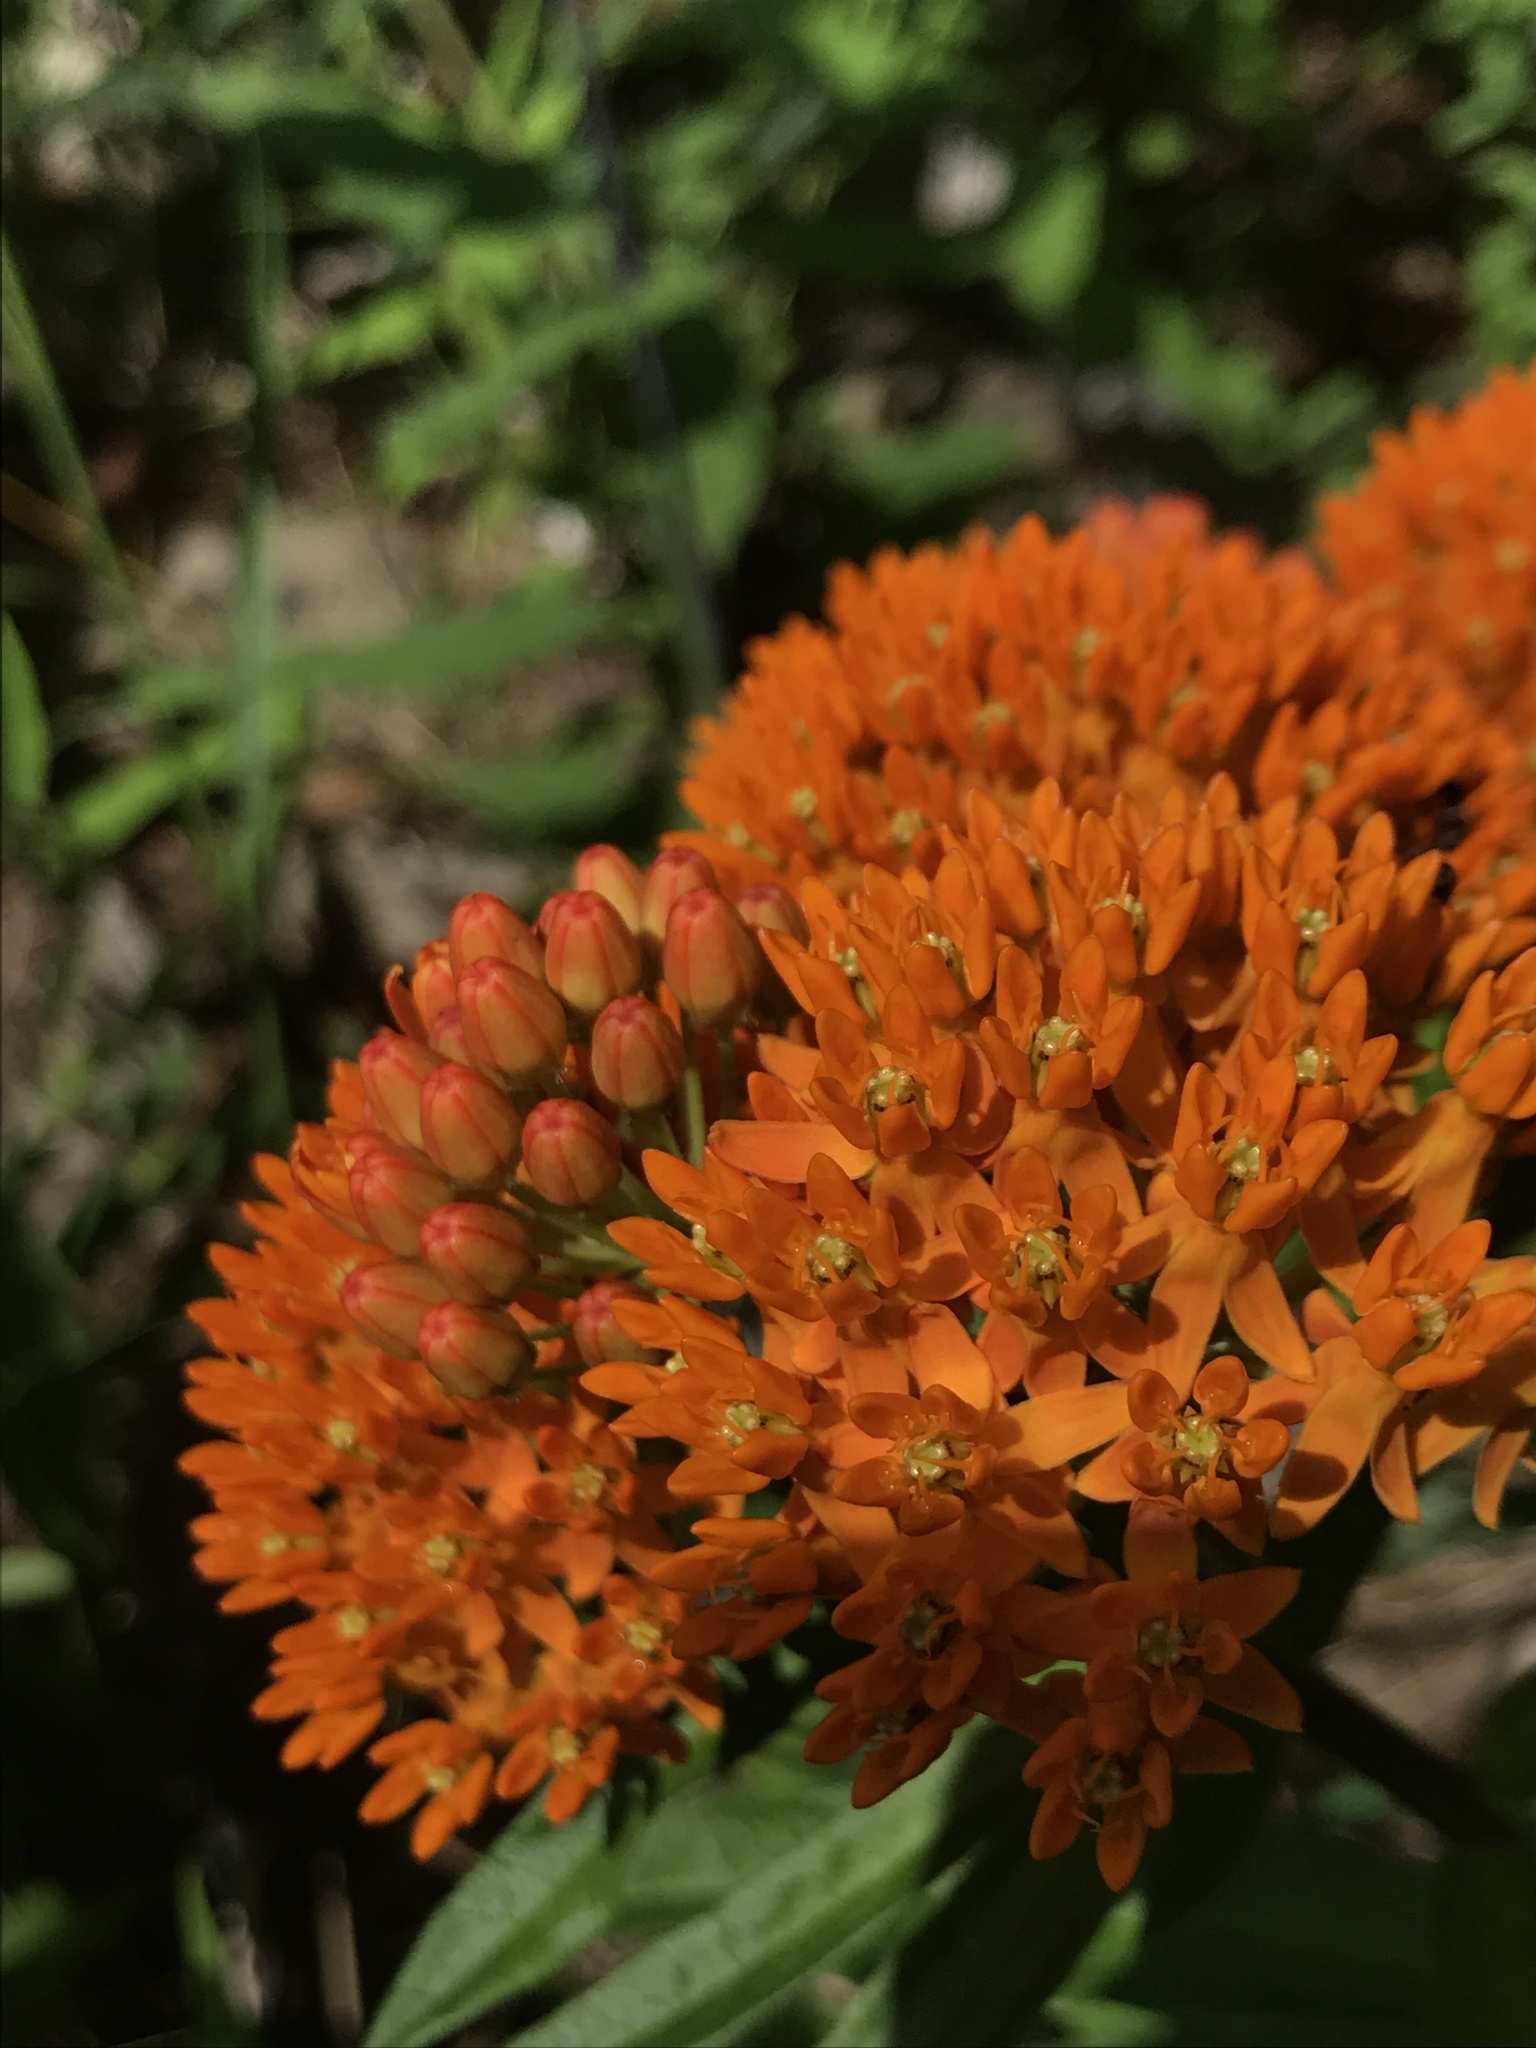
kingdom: Plantae
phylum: Tracheophyta
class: Magnoliopsida
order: Gentianales
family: Apocynaceae
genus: Asclepias
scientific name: Asclepias tuberosa
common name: Butterfly milkweed
